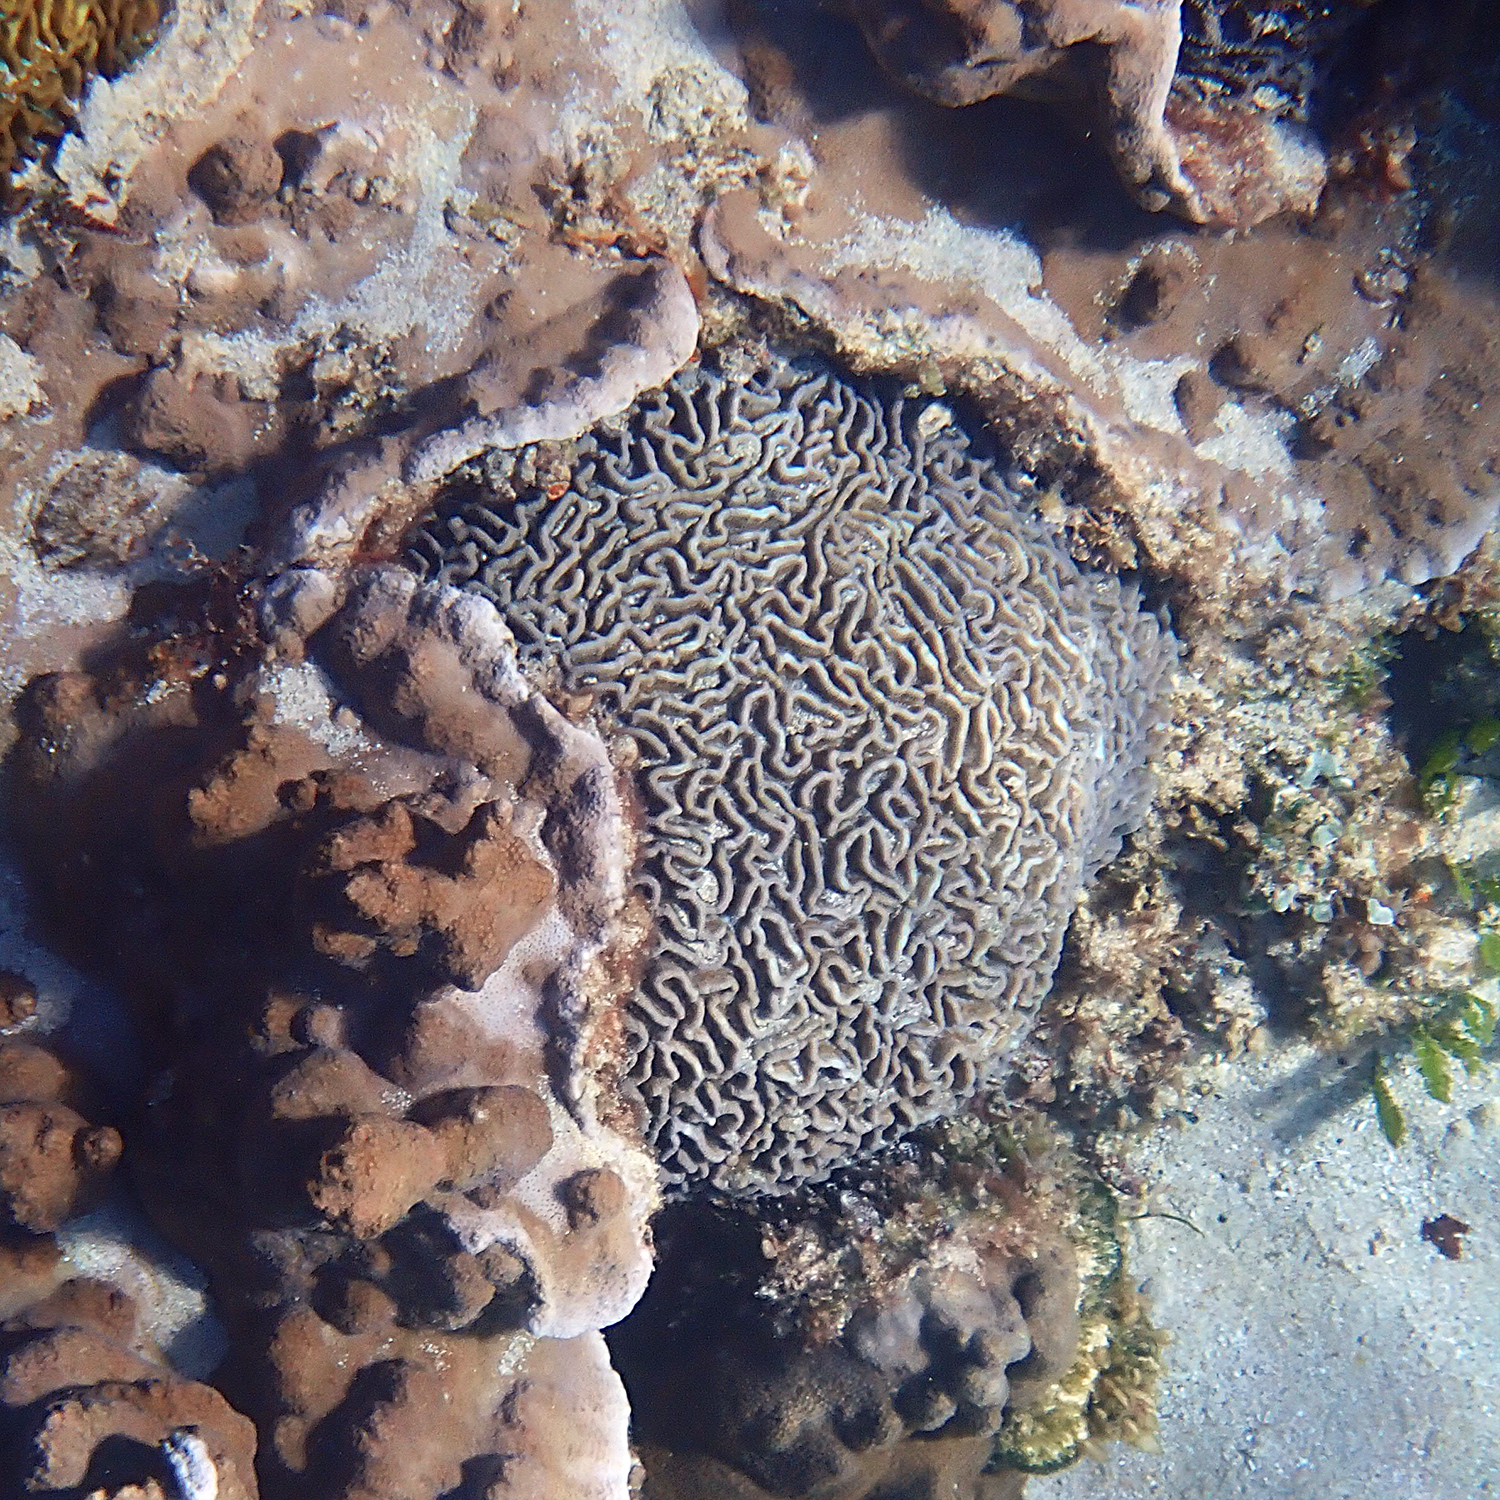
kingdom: Animalia
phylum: Cnidaria
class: Anthozoa
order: Scleractinia
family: Merulinidae
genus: Paragoniastrea
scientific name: Paragoniastrea australensis
